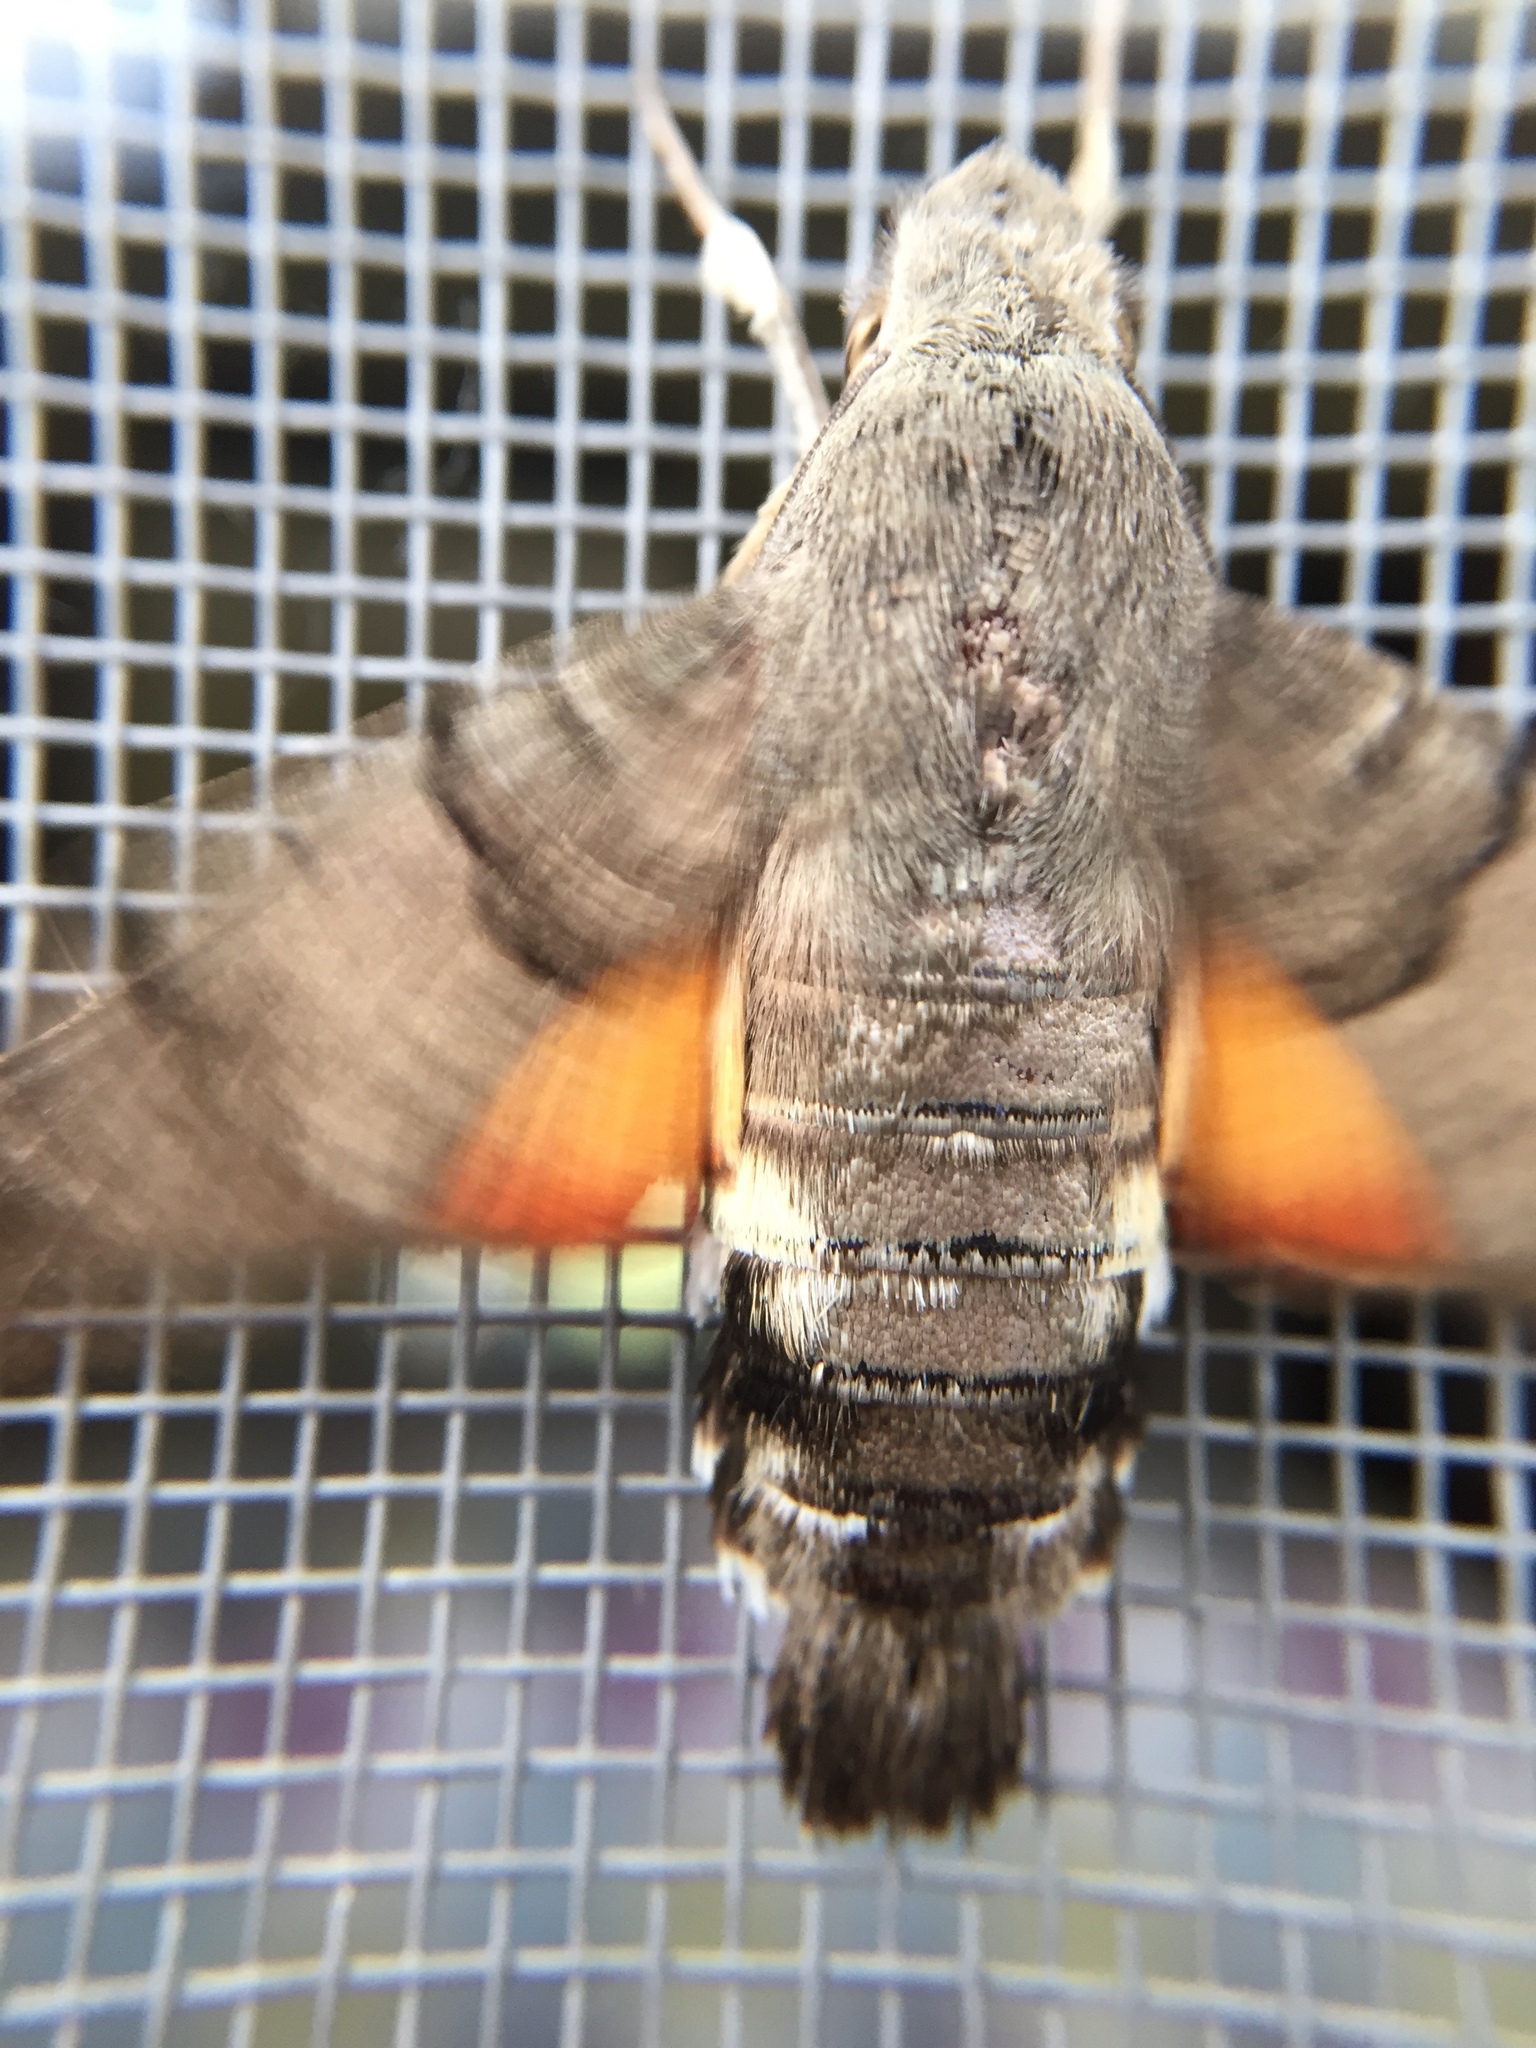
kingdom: Animalia
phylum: Arthropoda
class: Insecta
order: Lepidoptera
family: Sphingidae
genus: Macroglossum
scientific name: Macroglossum stellatarum
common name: Humming-bird hawk-moth
